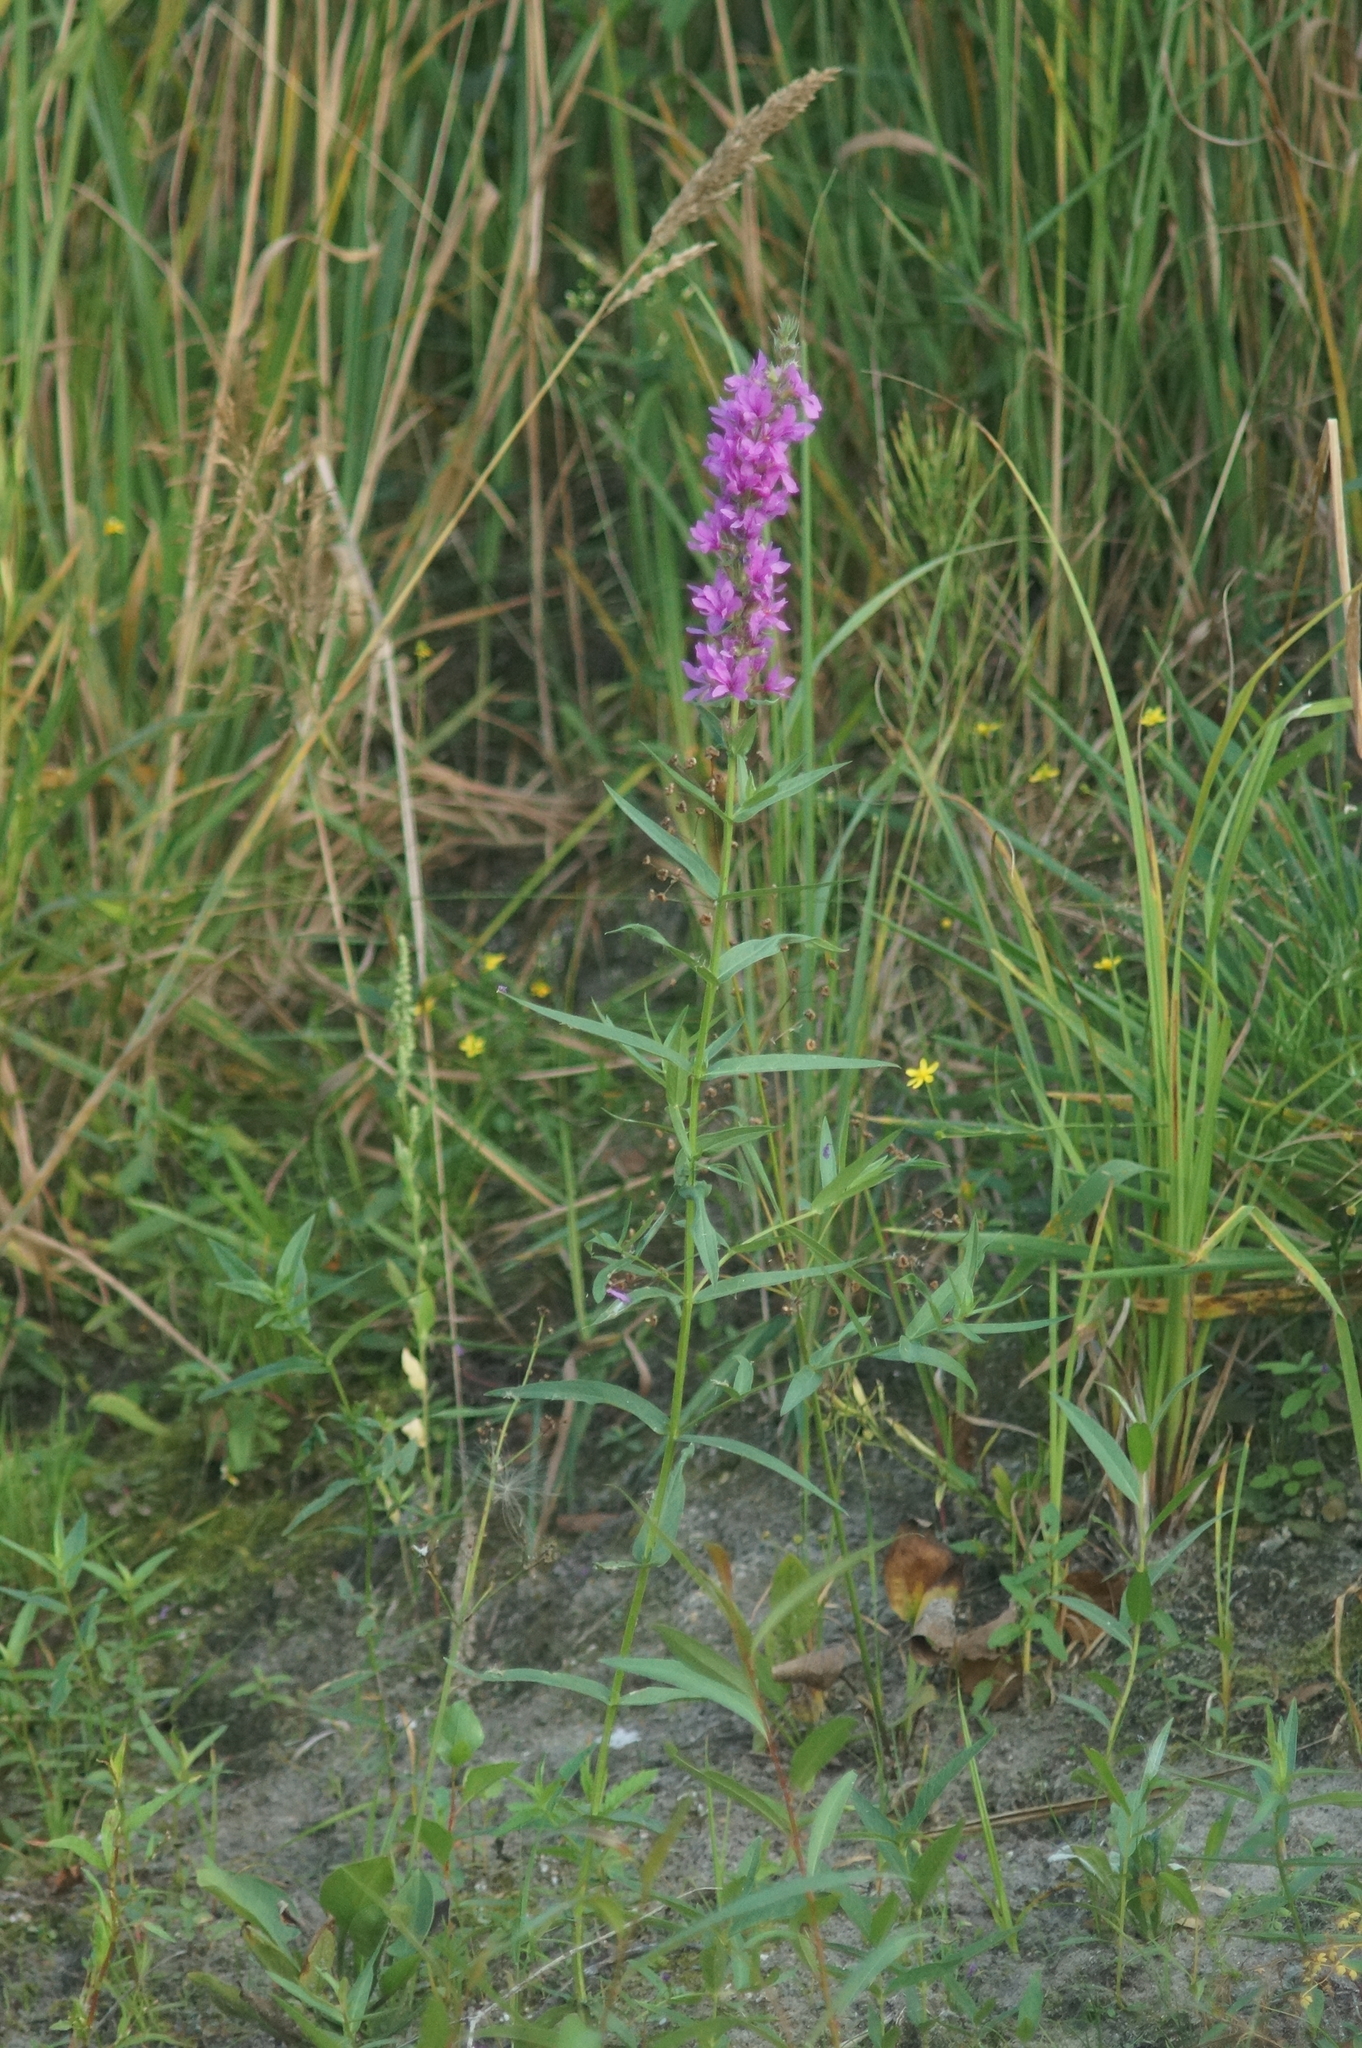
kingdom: Plantae
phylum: Tracheophyta
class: Magnoliopsida
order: Myrtales
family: Lythraceae
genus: Lythrum
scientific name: Lythrum salicaria
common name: Purple loosestrife
